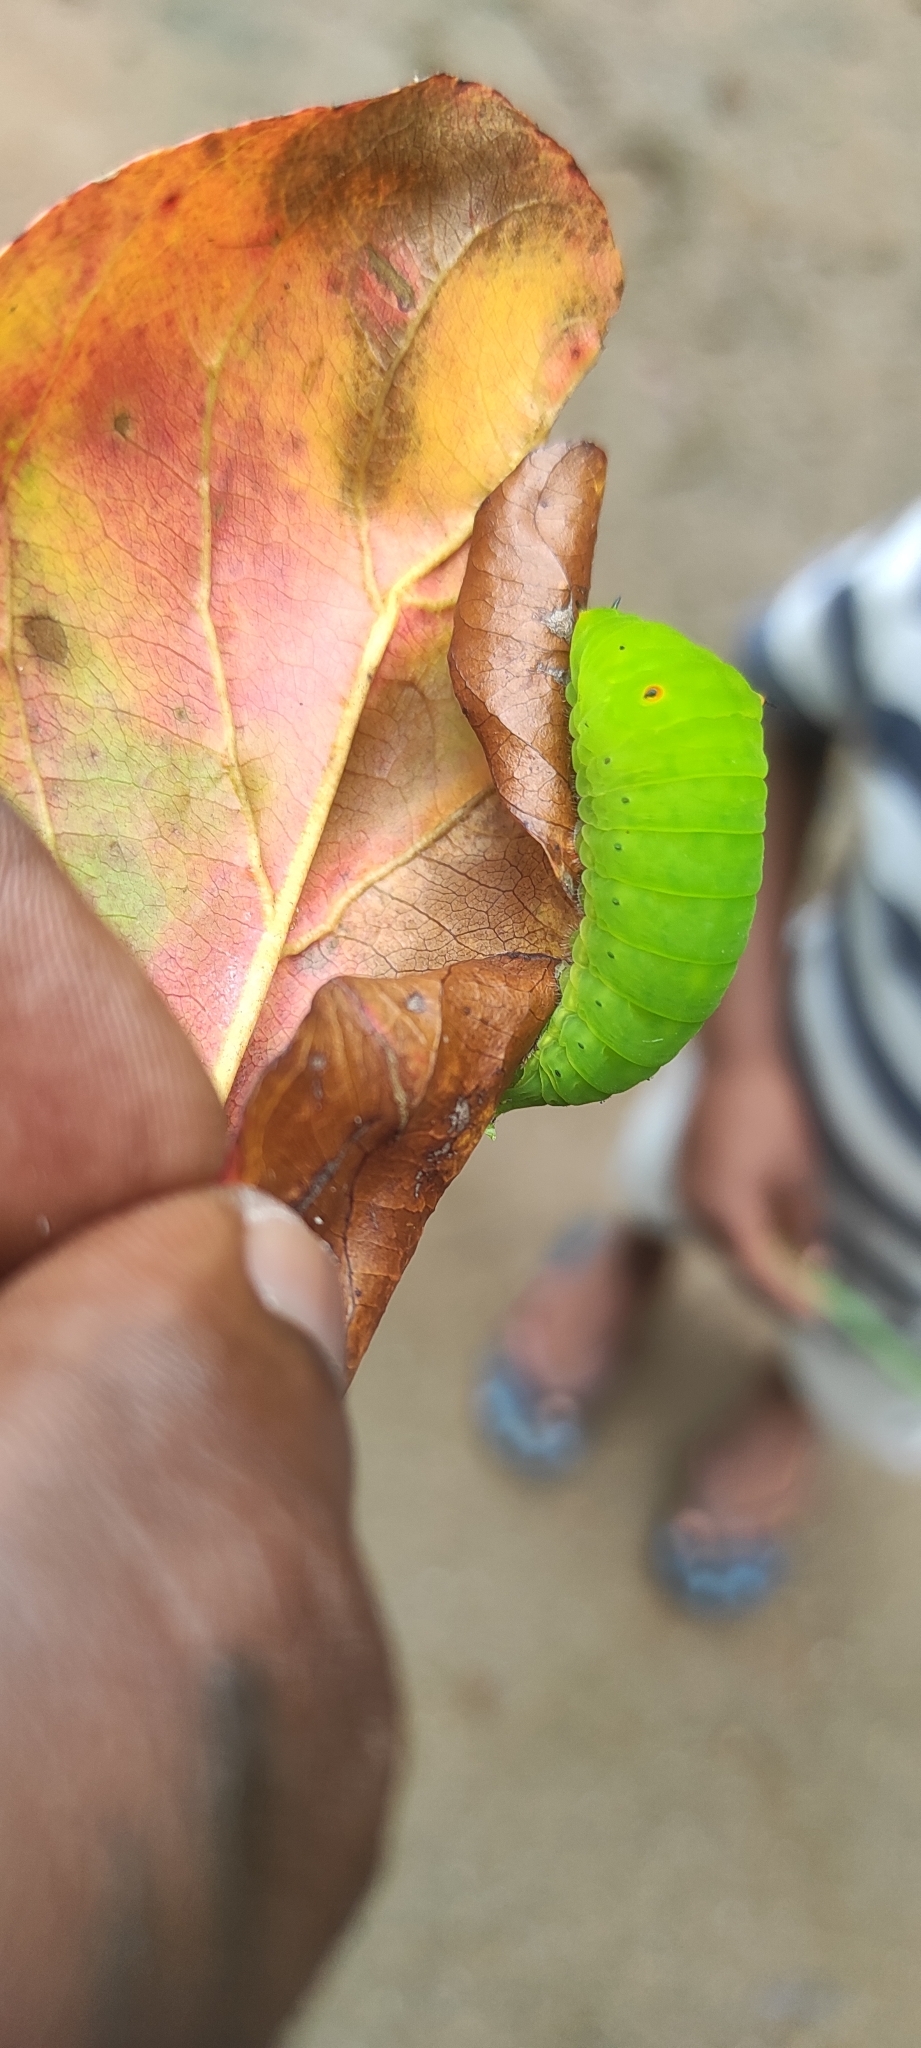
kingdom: Animalia
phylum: Arthropoda
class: Insecta
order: Lepidoptera
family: Papilionidae
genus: Graphium
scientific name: Graphium doson
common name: Common jay
